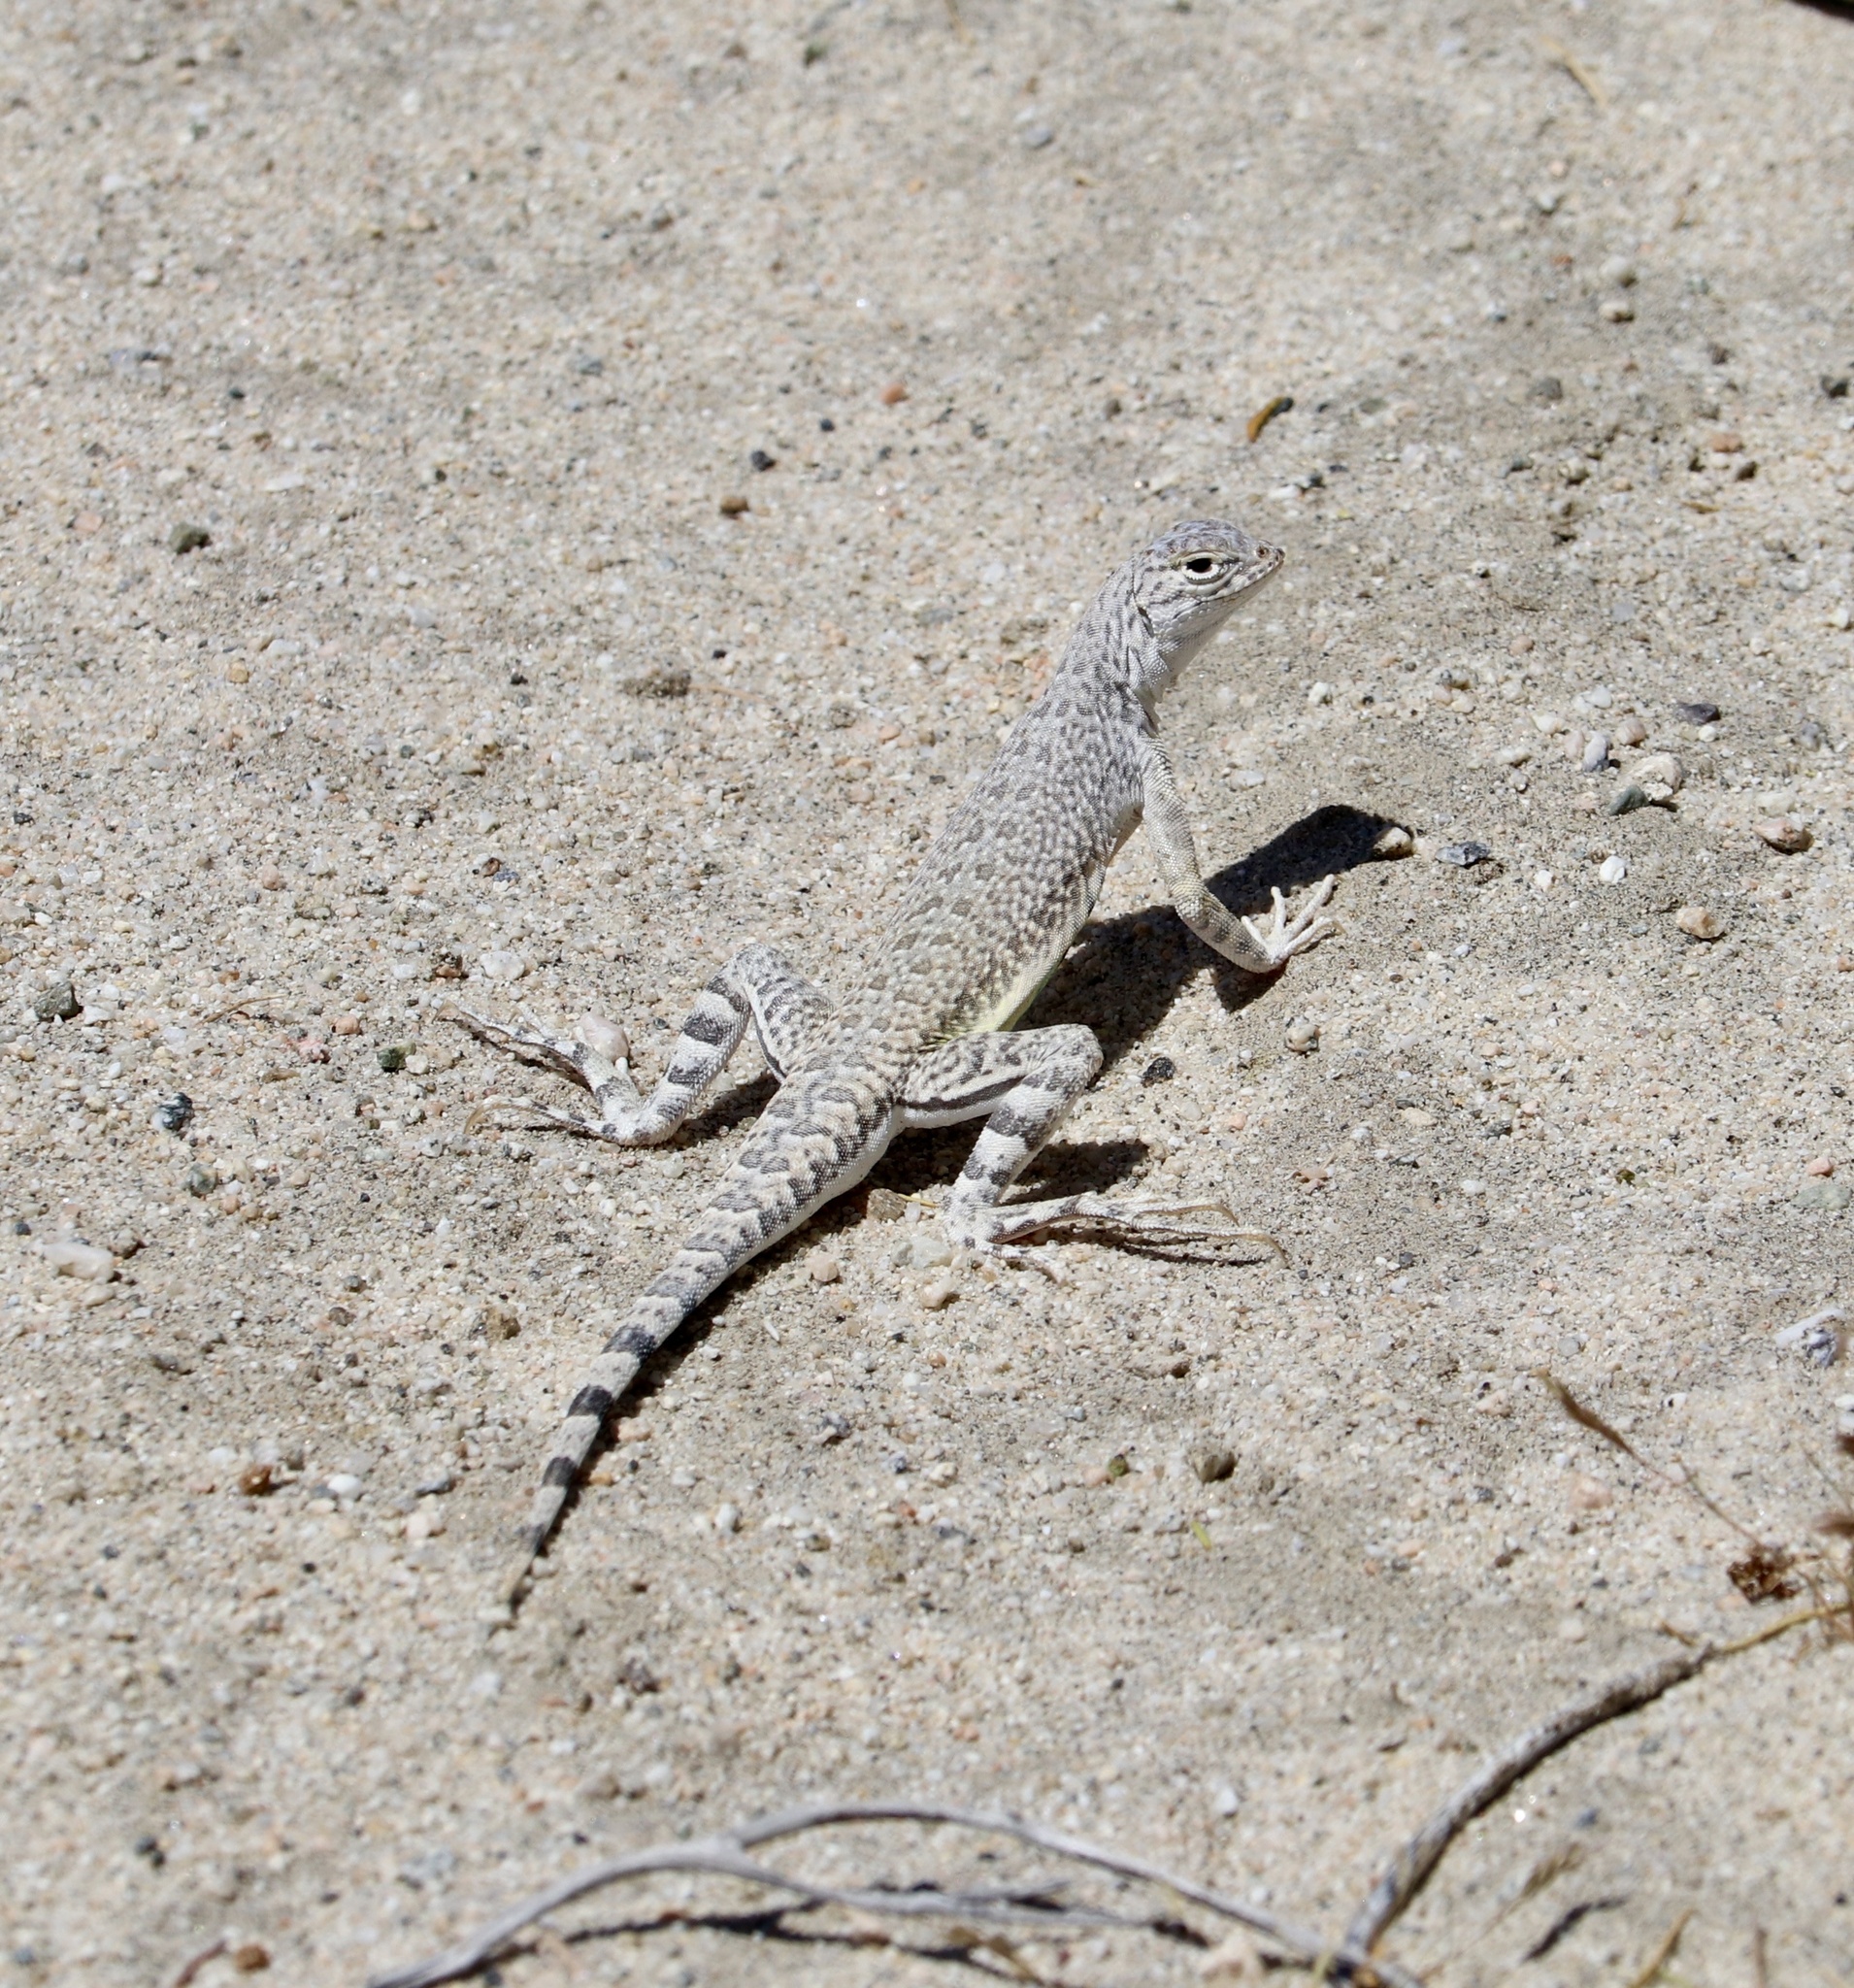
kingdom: Animalia
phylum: Chordata
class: Squamata
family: Phrynosomatidae
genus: Callisaurus
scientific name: Callisaurus draconoides
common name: Zebra-tailed lizard
